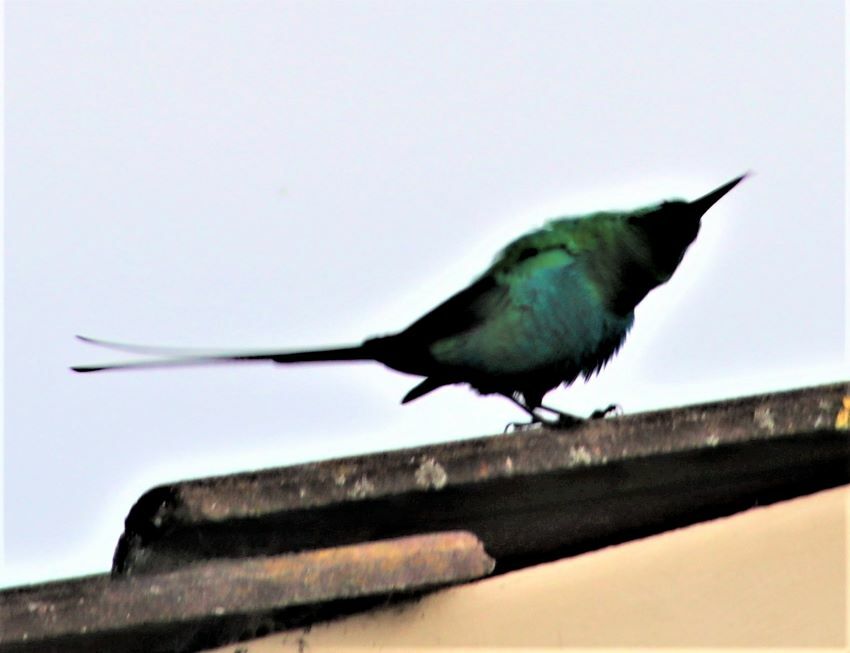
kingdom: Animalia
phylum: Chordata
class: Aves
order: Passeriformes
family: Nectariniidae
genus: Nectarinia
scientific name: Nectarinia famosa
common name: Malachite sunbird
